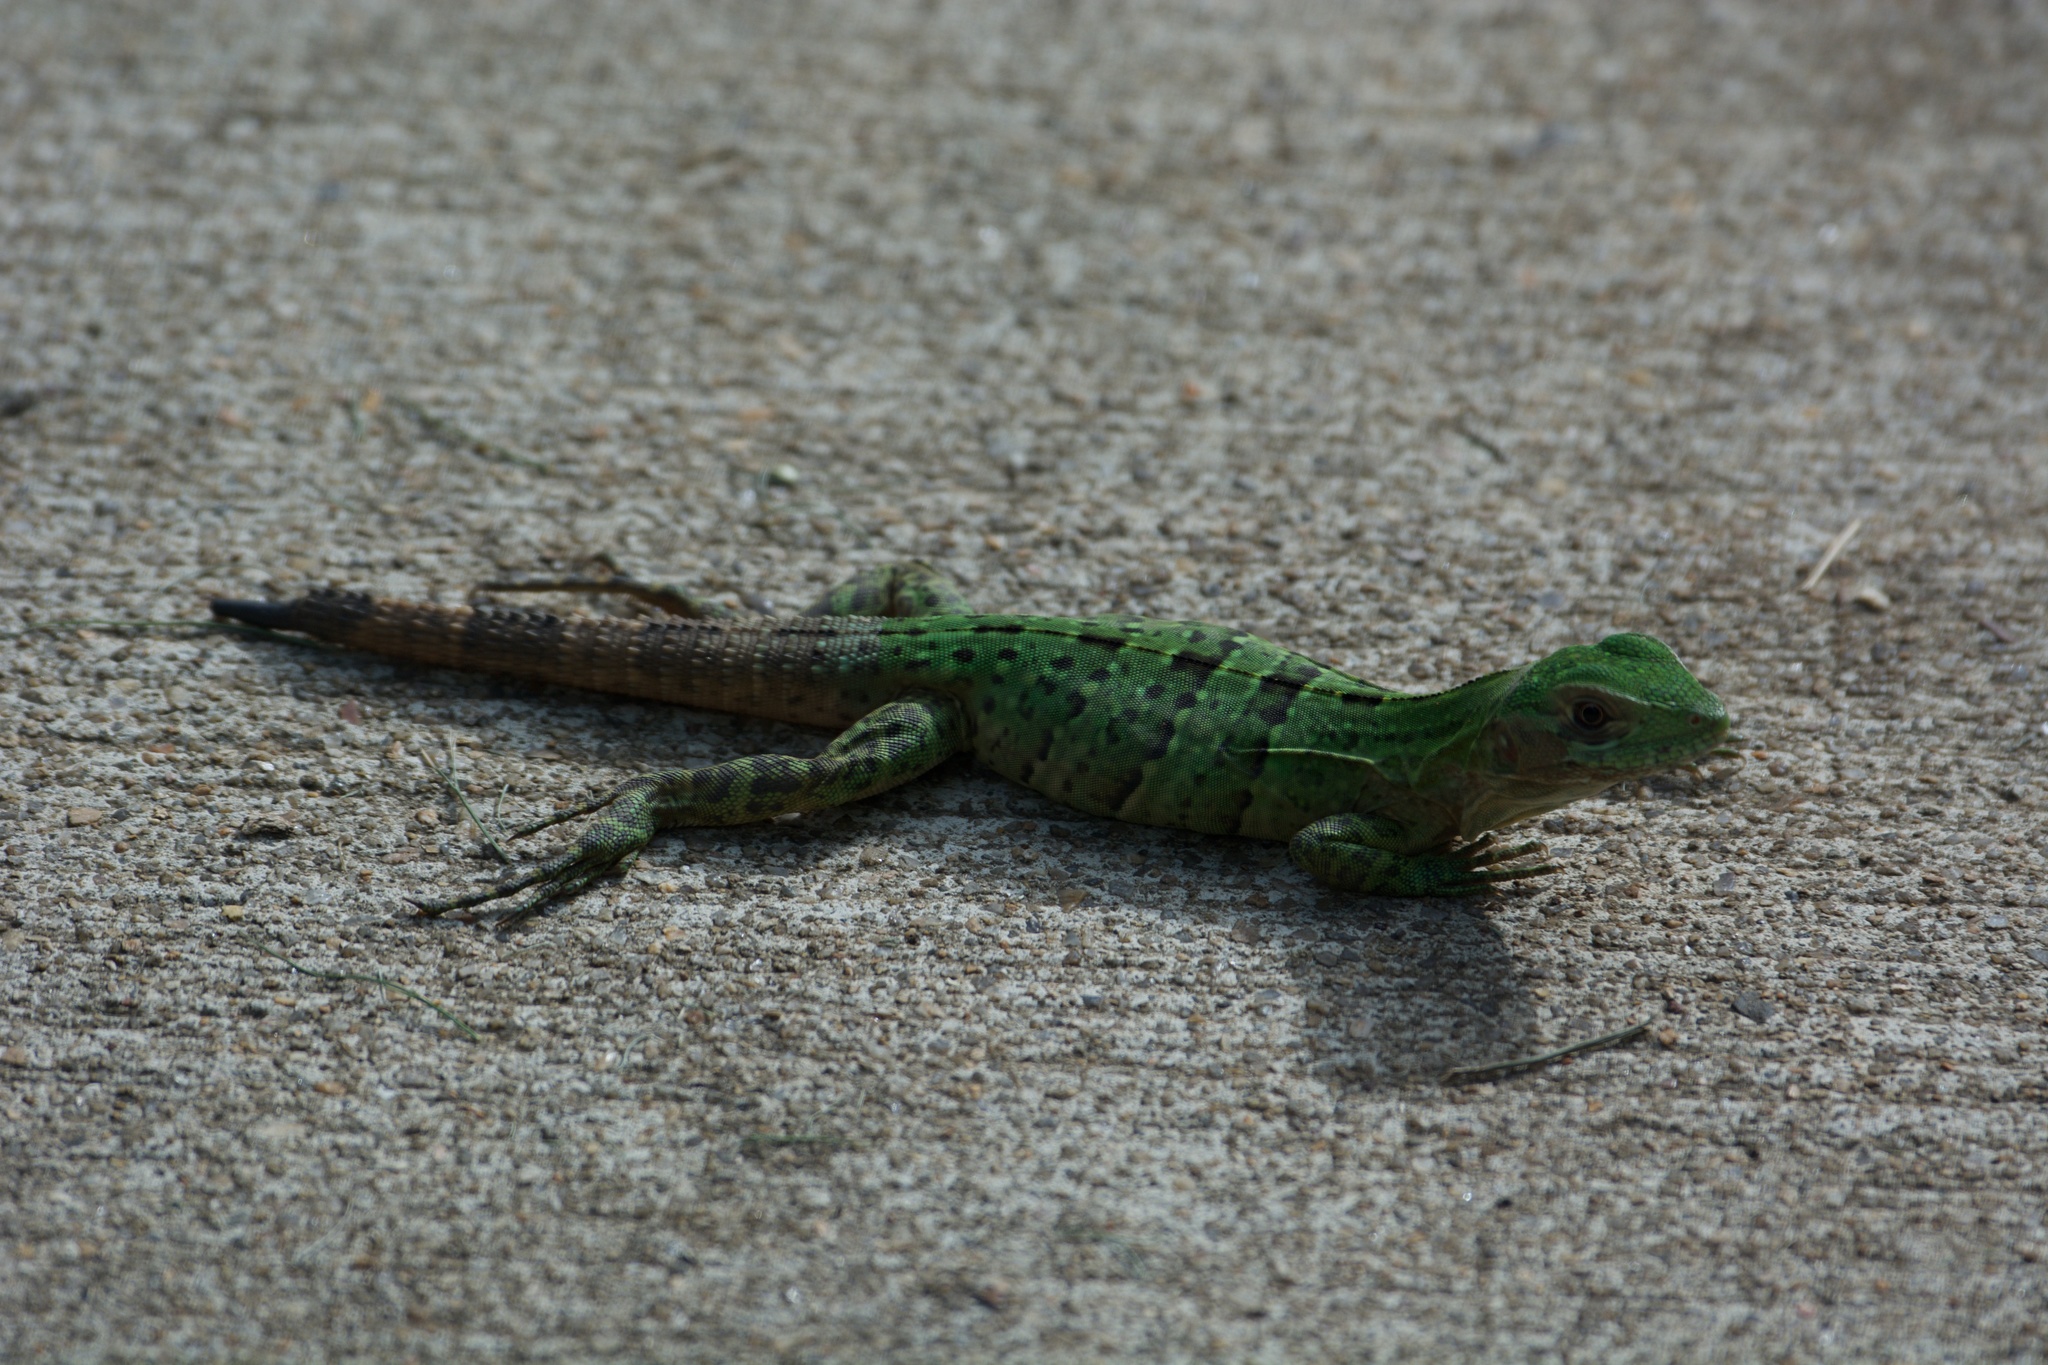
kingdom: Animalia
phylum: Chordata
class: Squamata
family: Iguanidae
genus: Ctenosaura
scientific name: Ctenosaura similis
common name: Black spiny-tailed iguana
